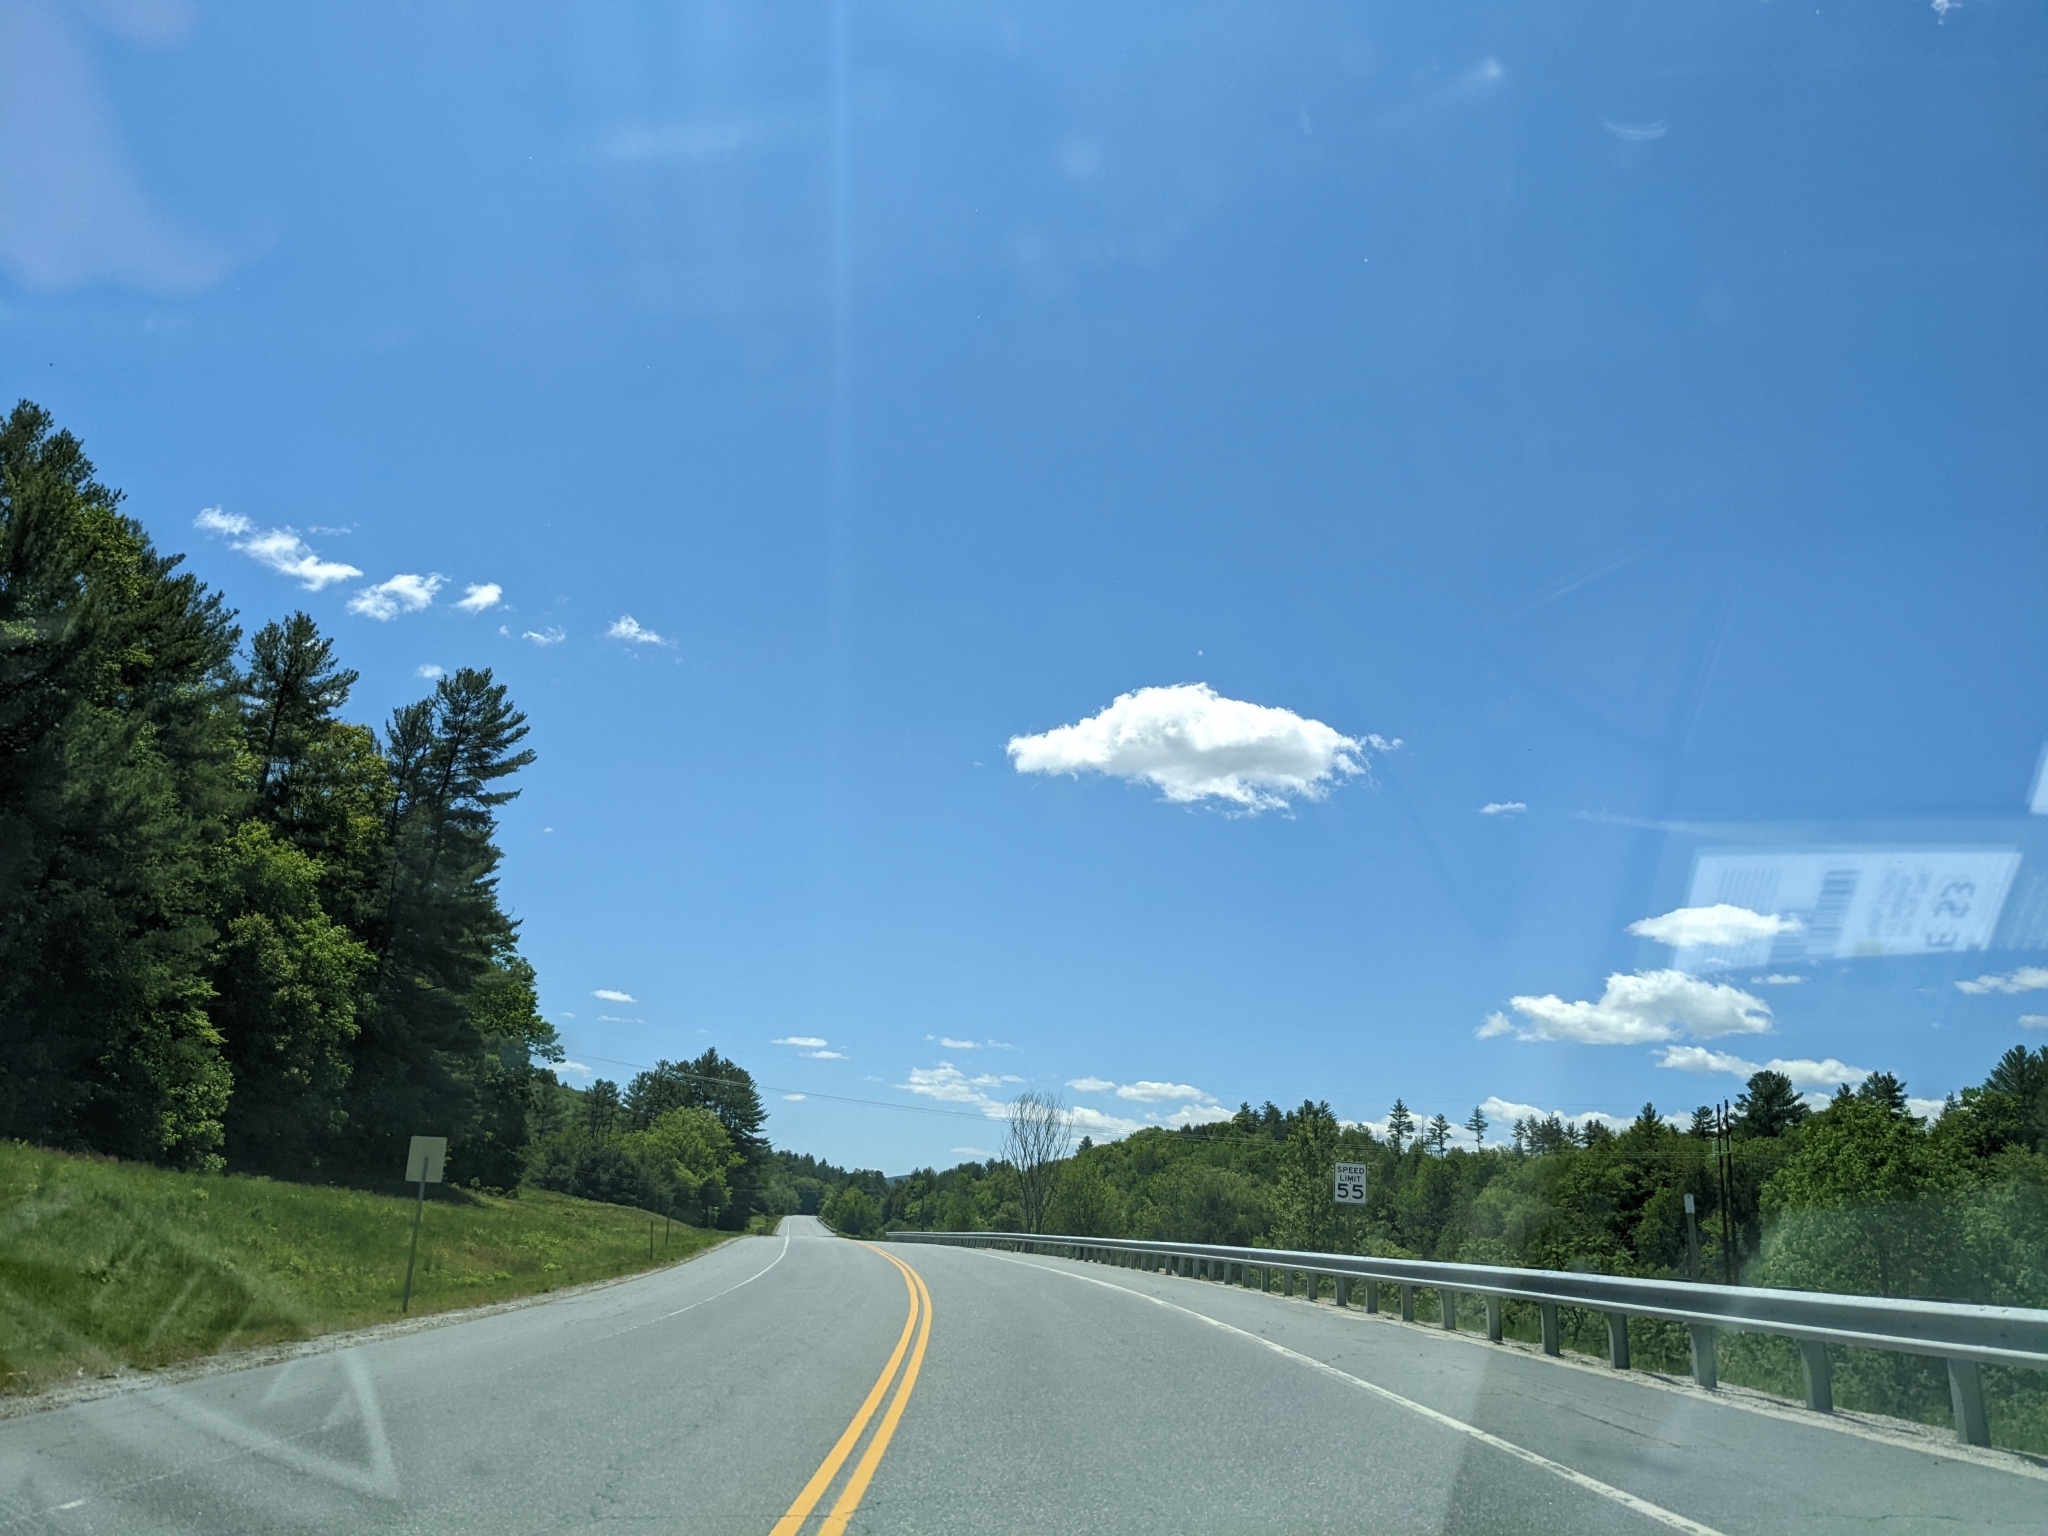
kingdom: Plantae
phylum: Tracheophyta
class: Pinopsida
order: Pinales
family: Pinaceae
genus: Pinus
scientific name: Pinus strobus
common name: Weymouth pine
